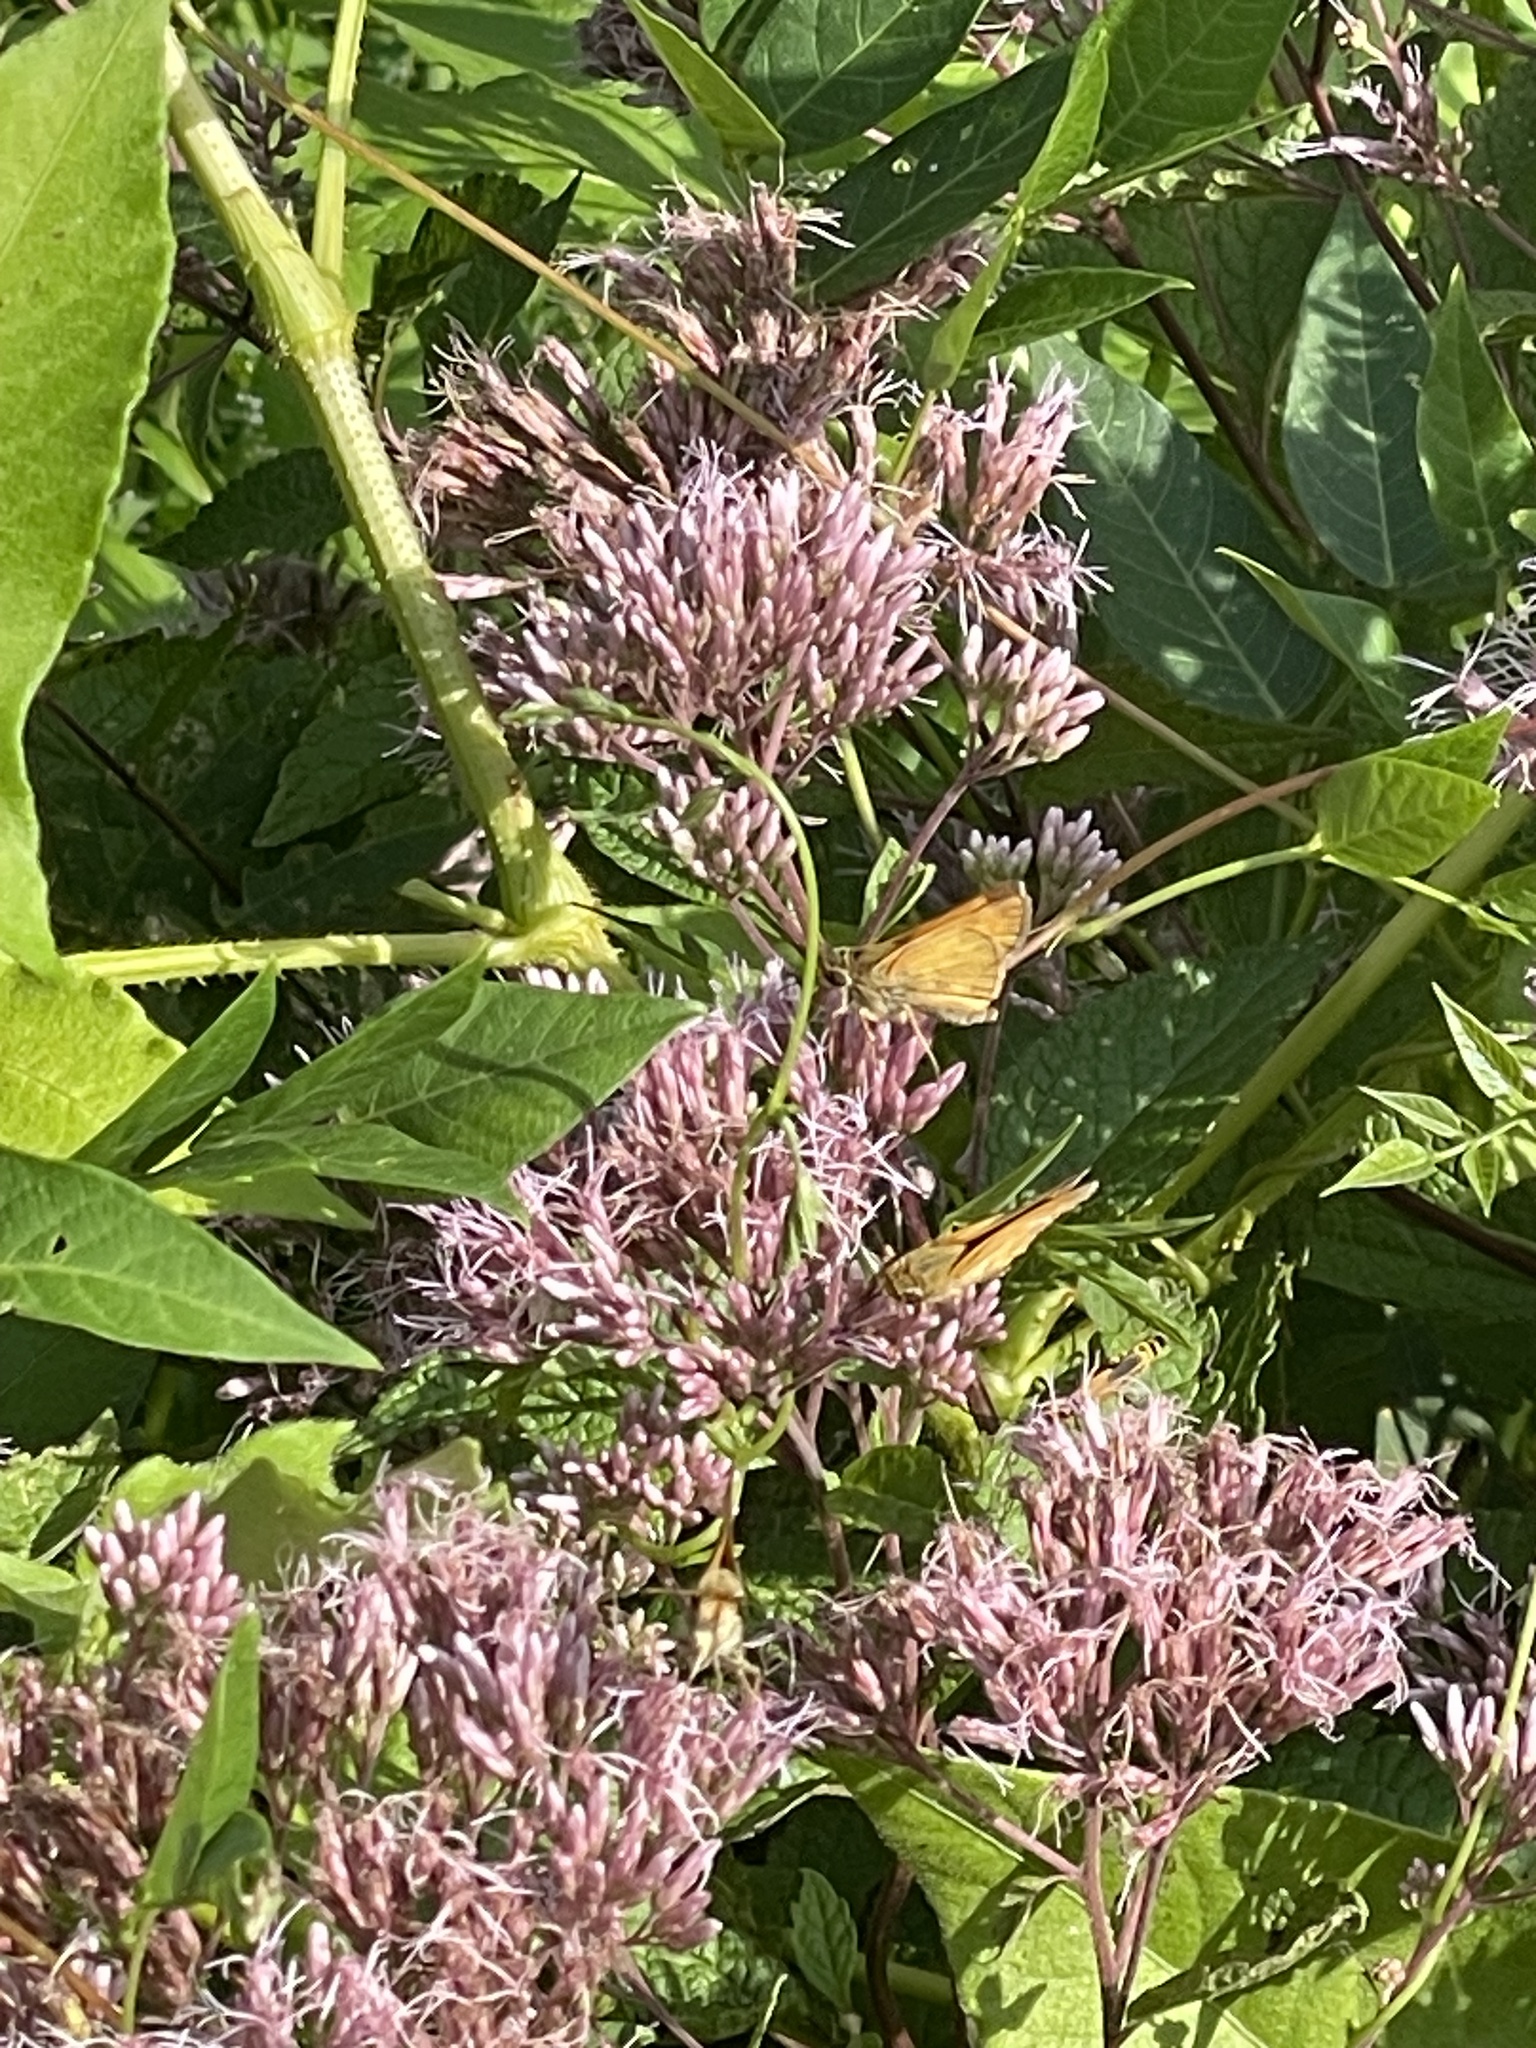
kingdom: Animalia
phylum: Arthropoda
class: Insecta
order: Lepidoptera
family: Hesperiidae
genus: Atalopedes
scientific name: Atalopedes
